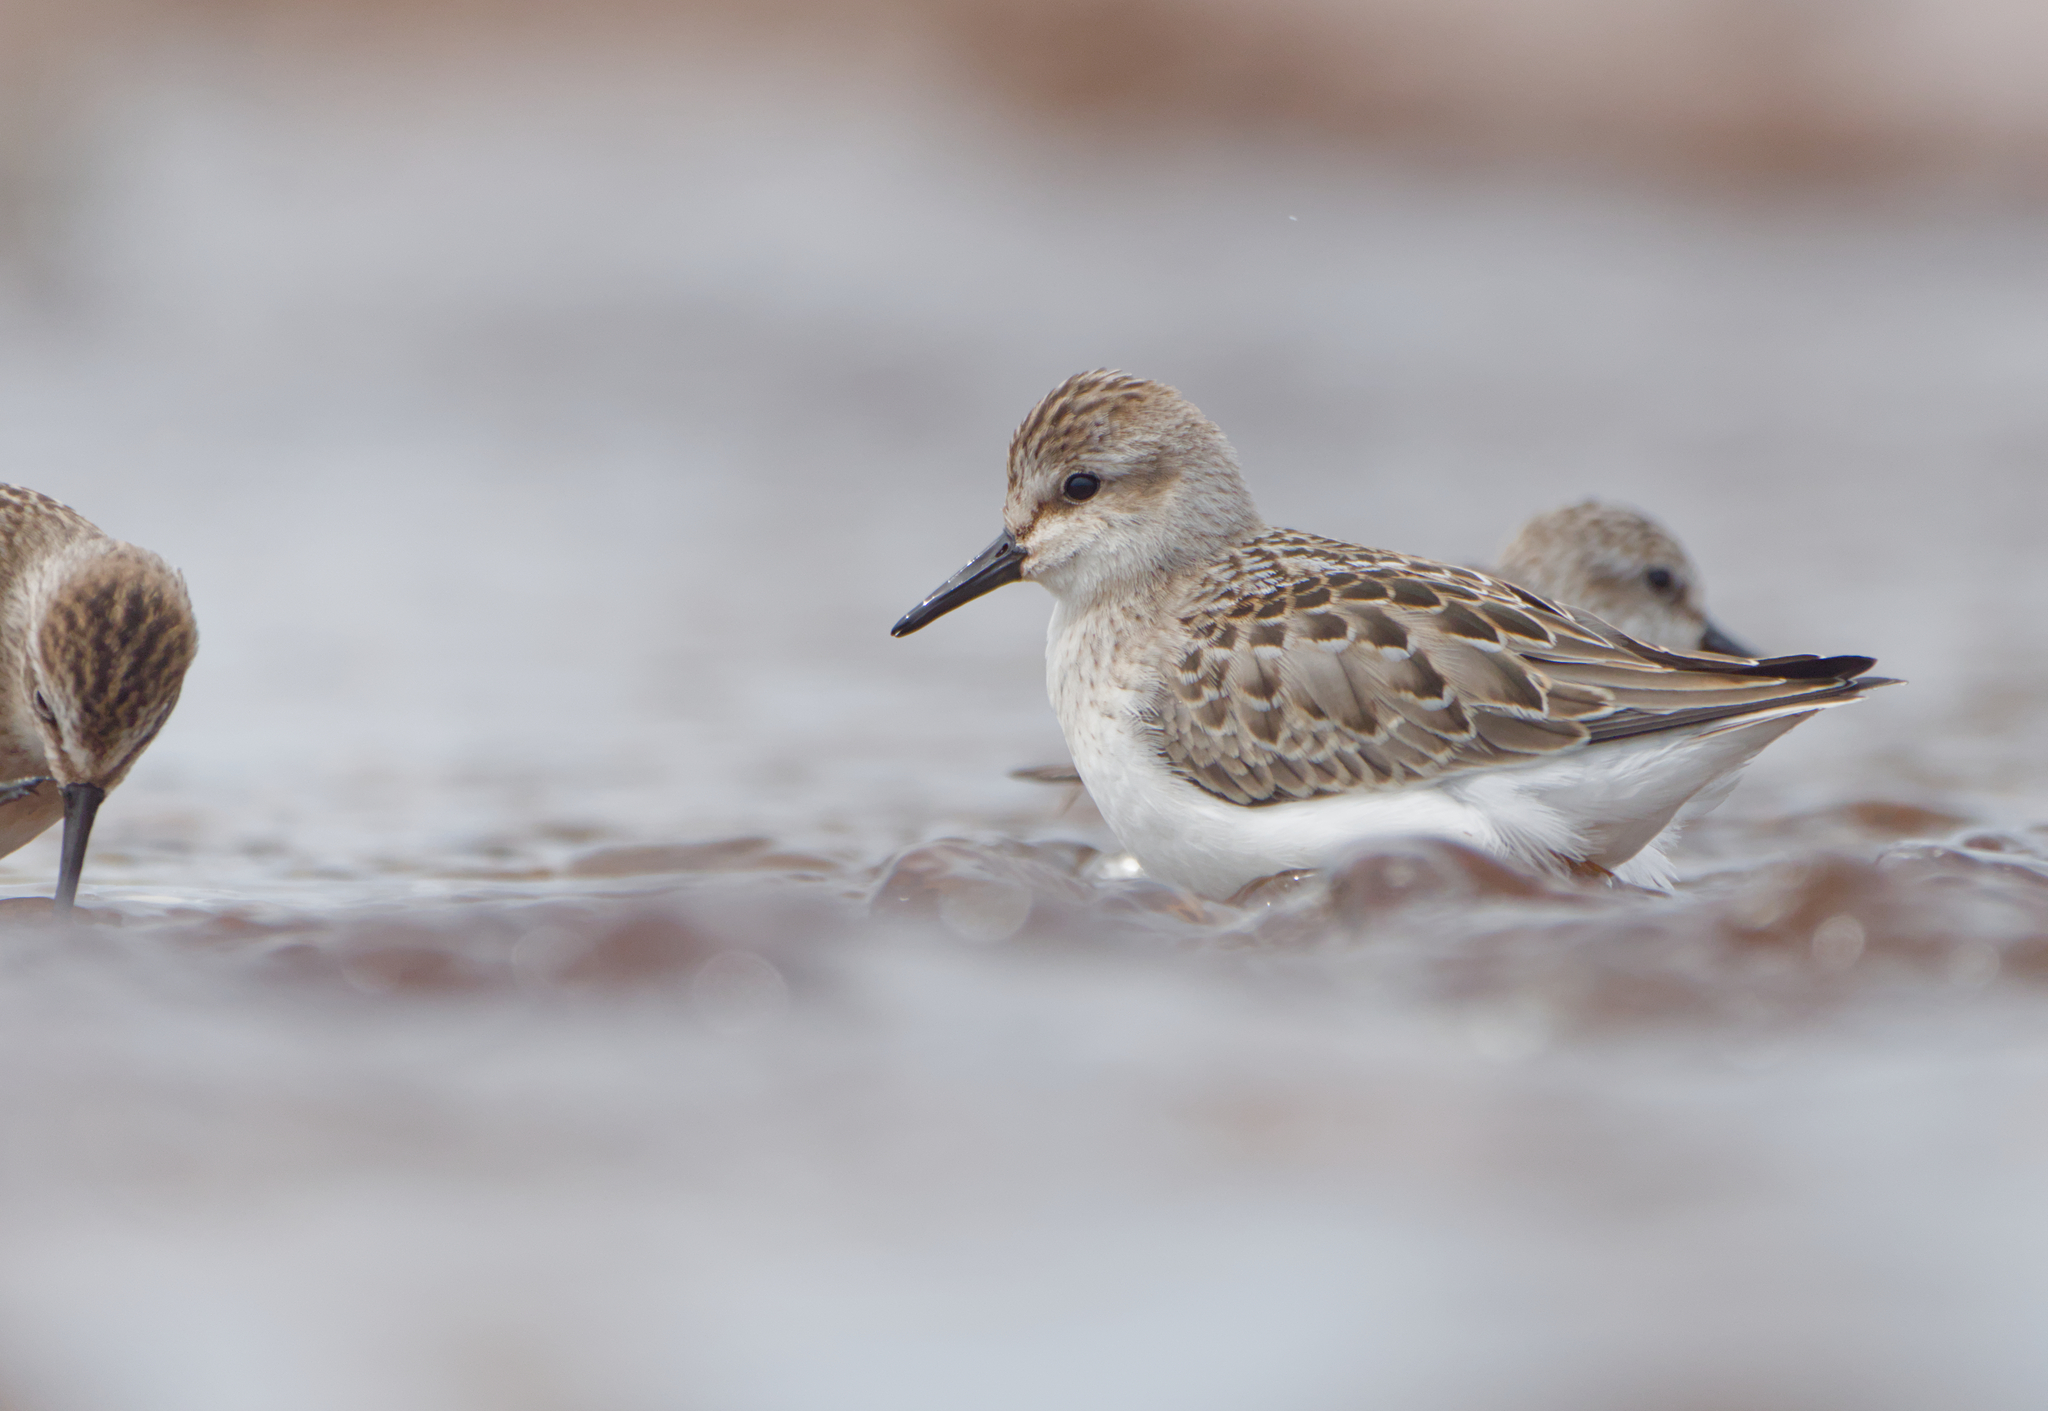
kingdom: Animalia
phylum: Chordata
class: Aves
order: Charadriiformes
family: Scolopacidae
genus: Calidris
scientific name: Calidris pusilla
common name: Semipalmated sandpiper
